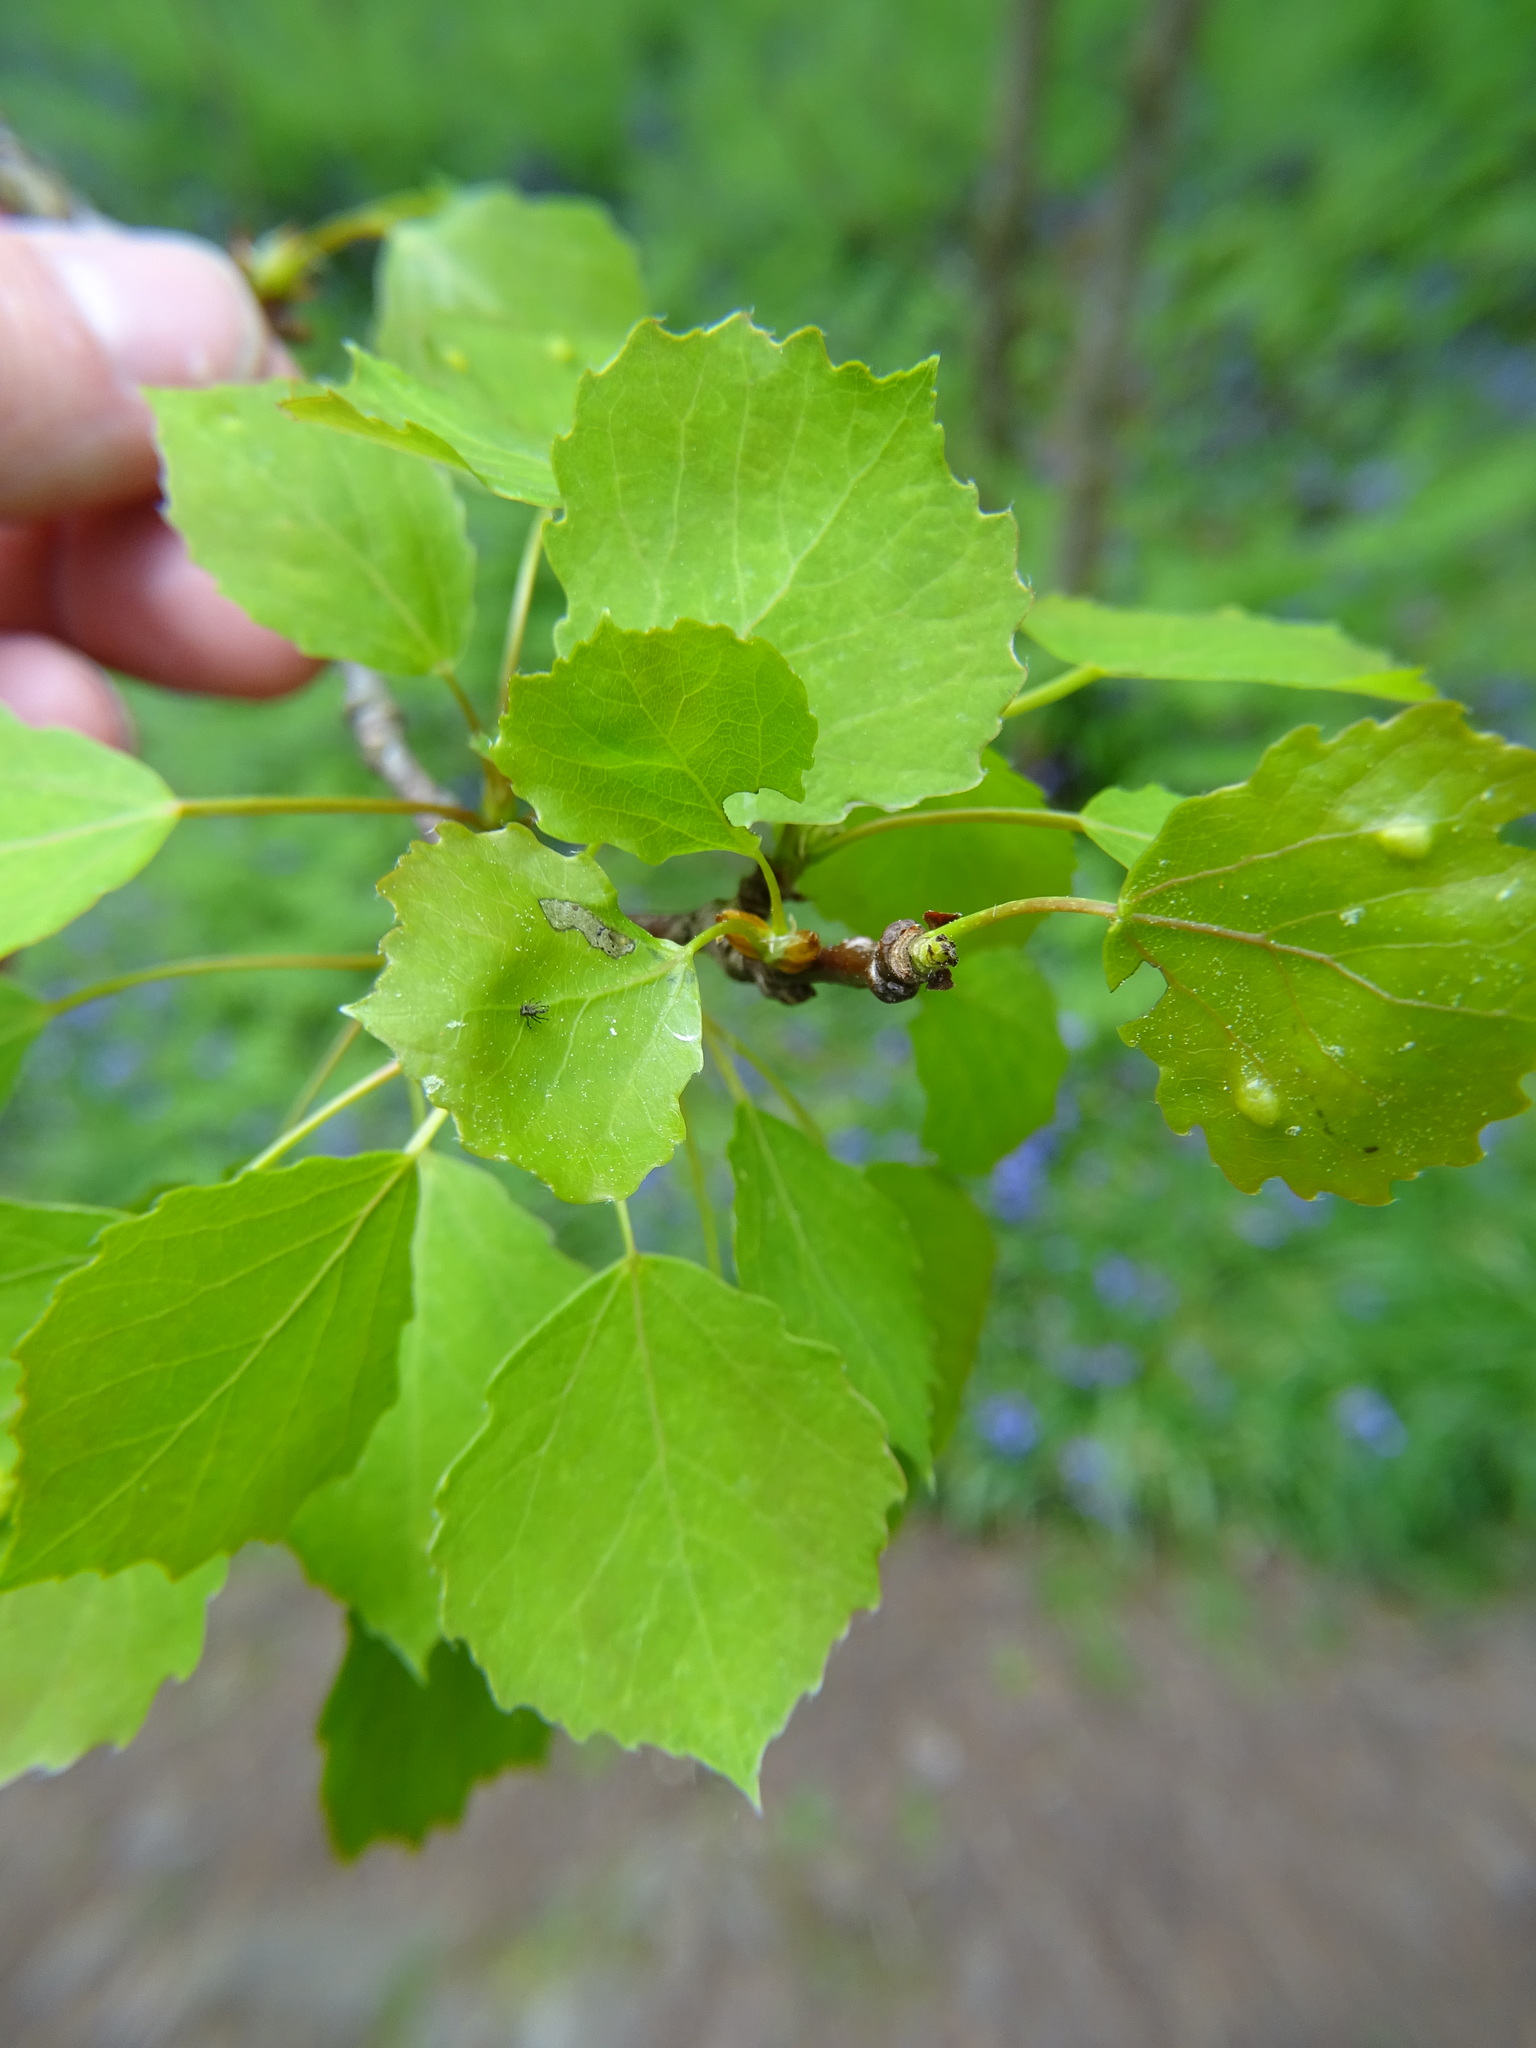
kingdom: Plantae
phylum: Tracheophyta
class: Magnoliopsida
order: Malpighiales
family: Salicaceae
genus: Populus
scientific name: Populus tremula
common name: European aspen
